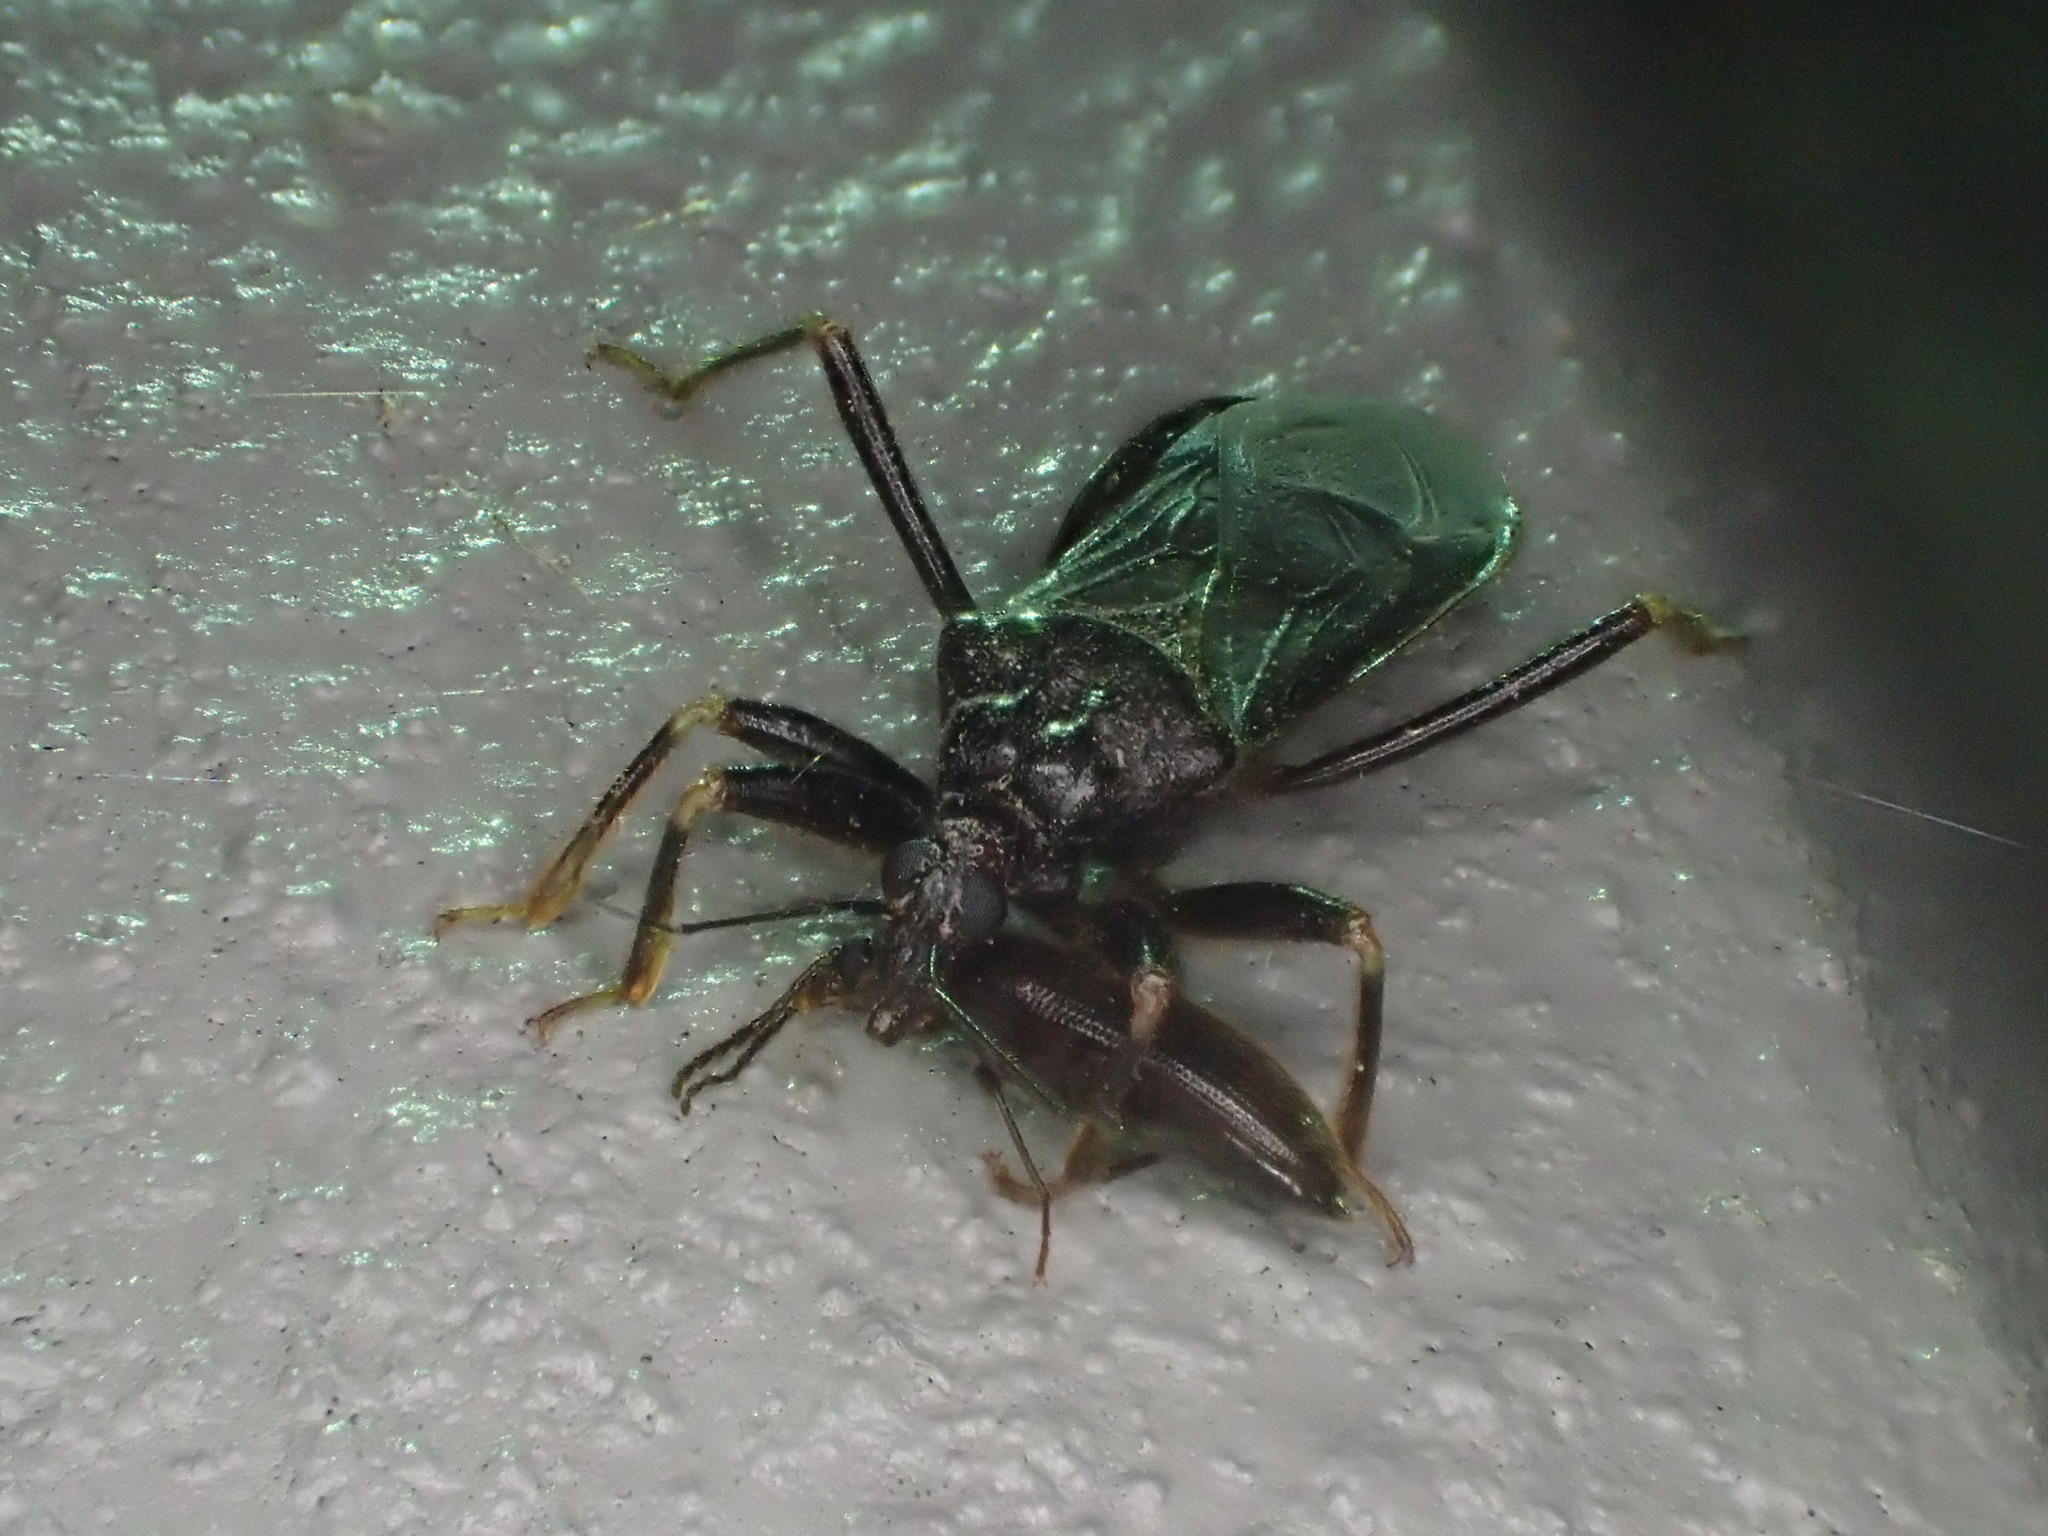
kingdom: Animalia
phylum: Arthropoda
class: Insecta
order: Hemiptera
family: Reduviidae
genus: Reduvius
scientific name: Reduvius personatus
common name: Masked hunter
